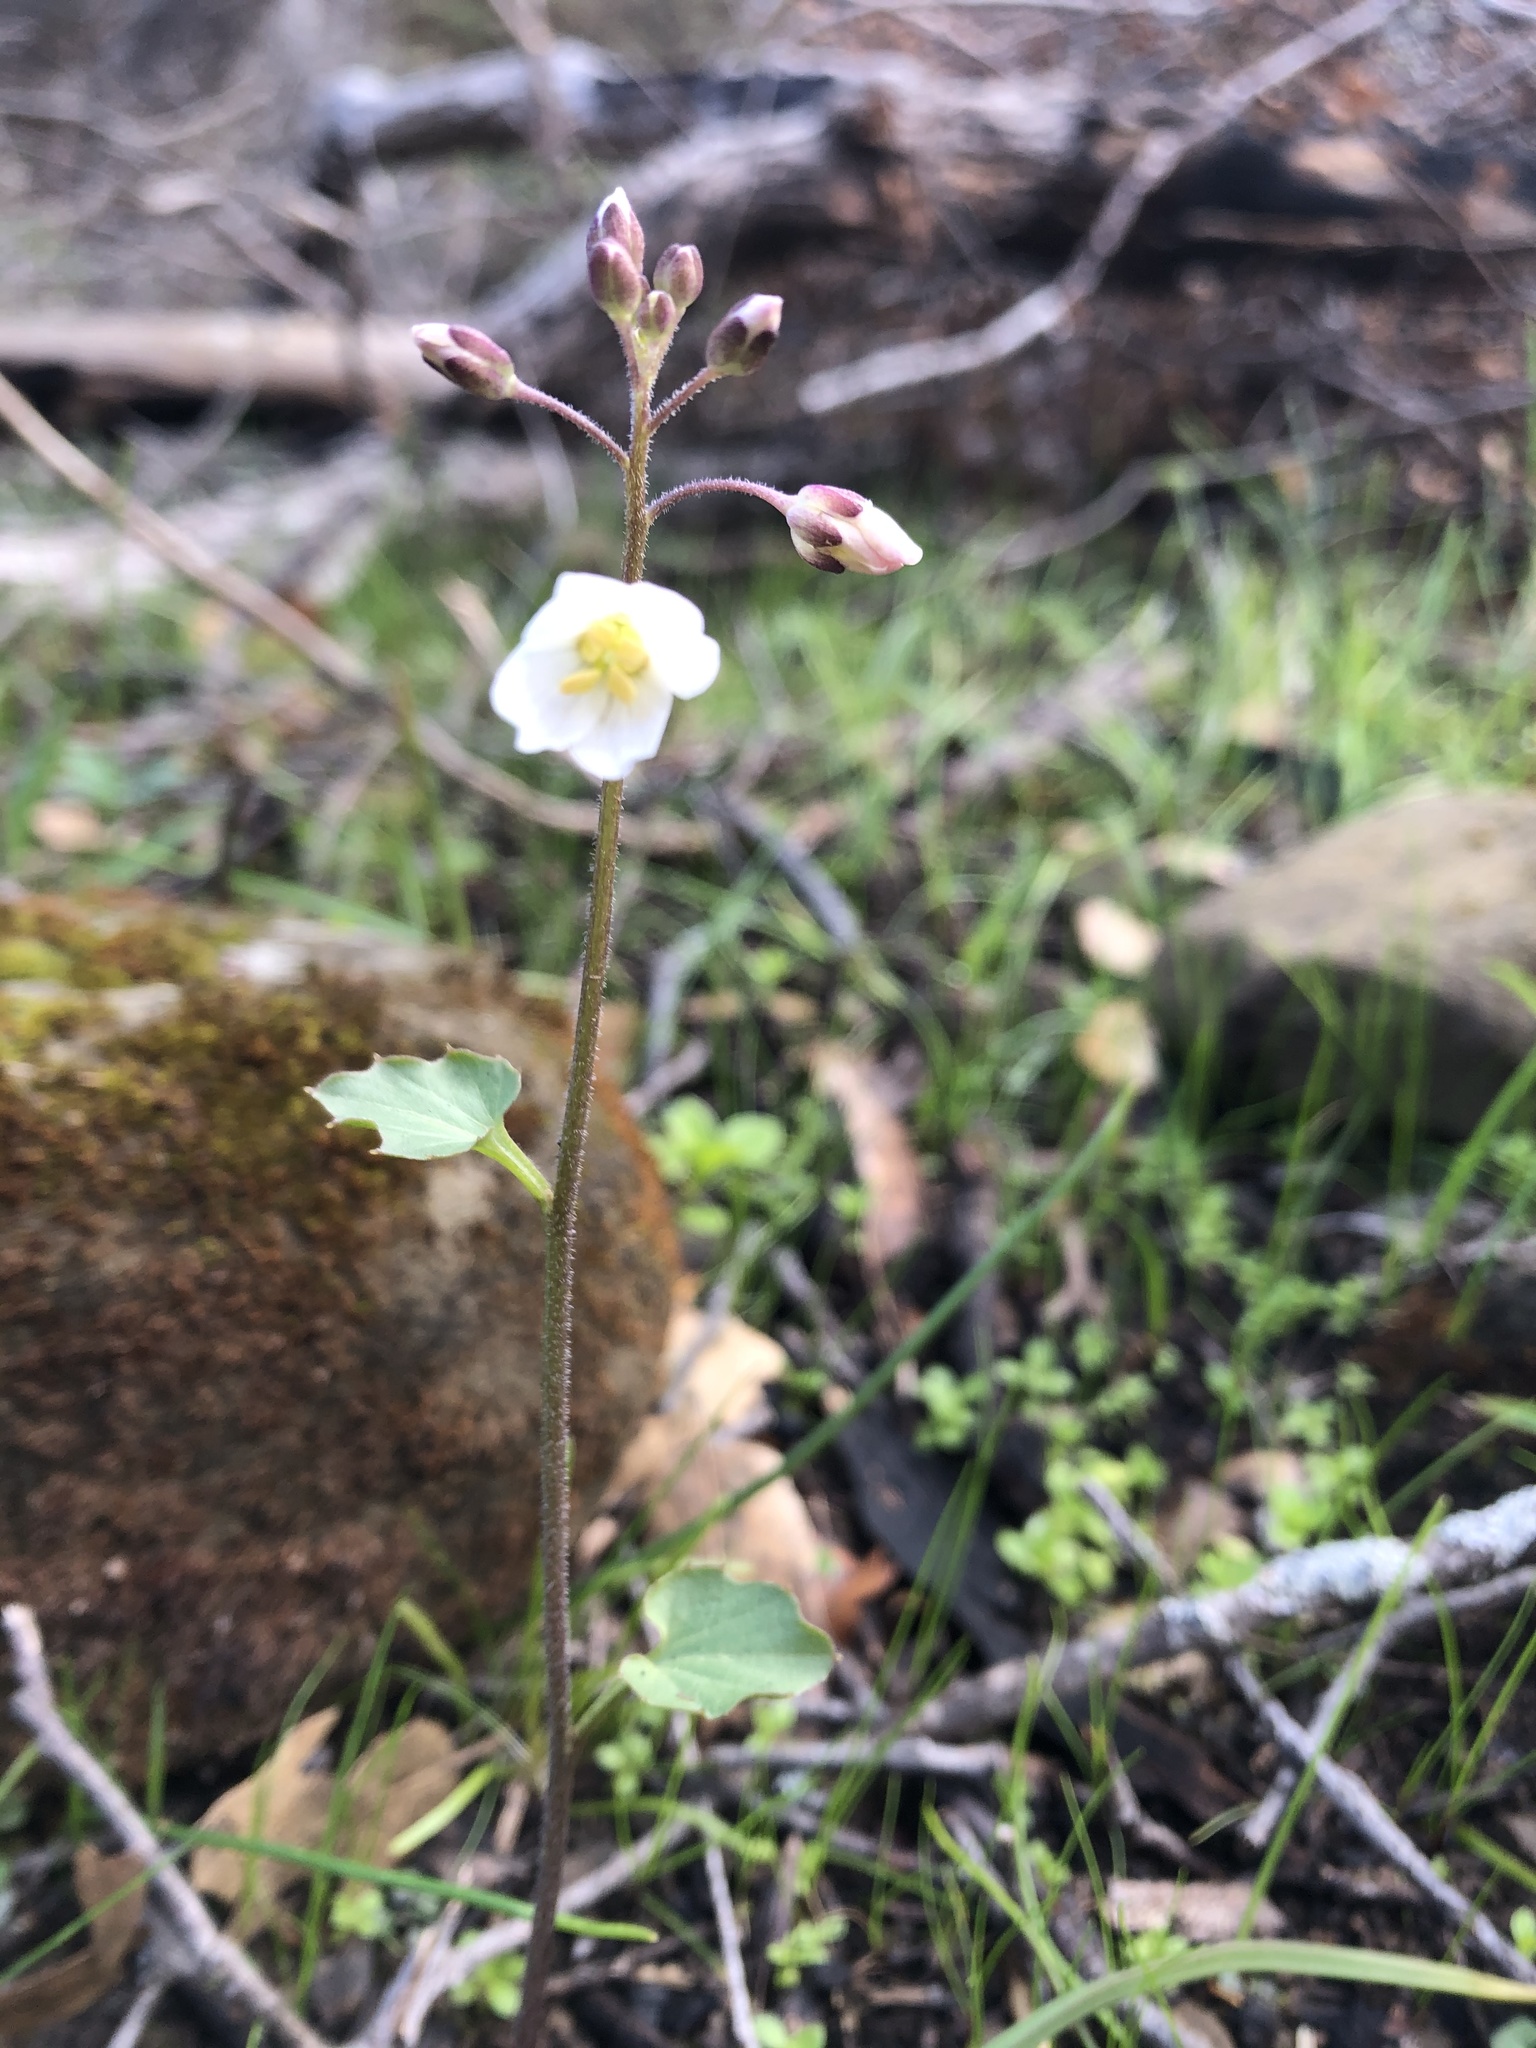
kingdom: Plantae
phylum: Tracheophyta
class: Magnoliopsida
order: Brassicales
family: Brassicaceae
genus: Cardamine
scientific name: Cardamine californica
